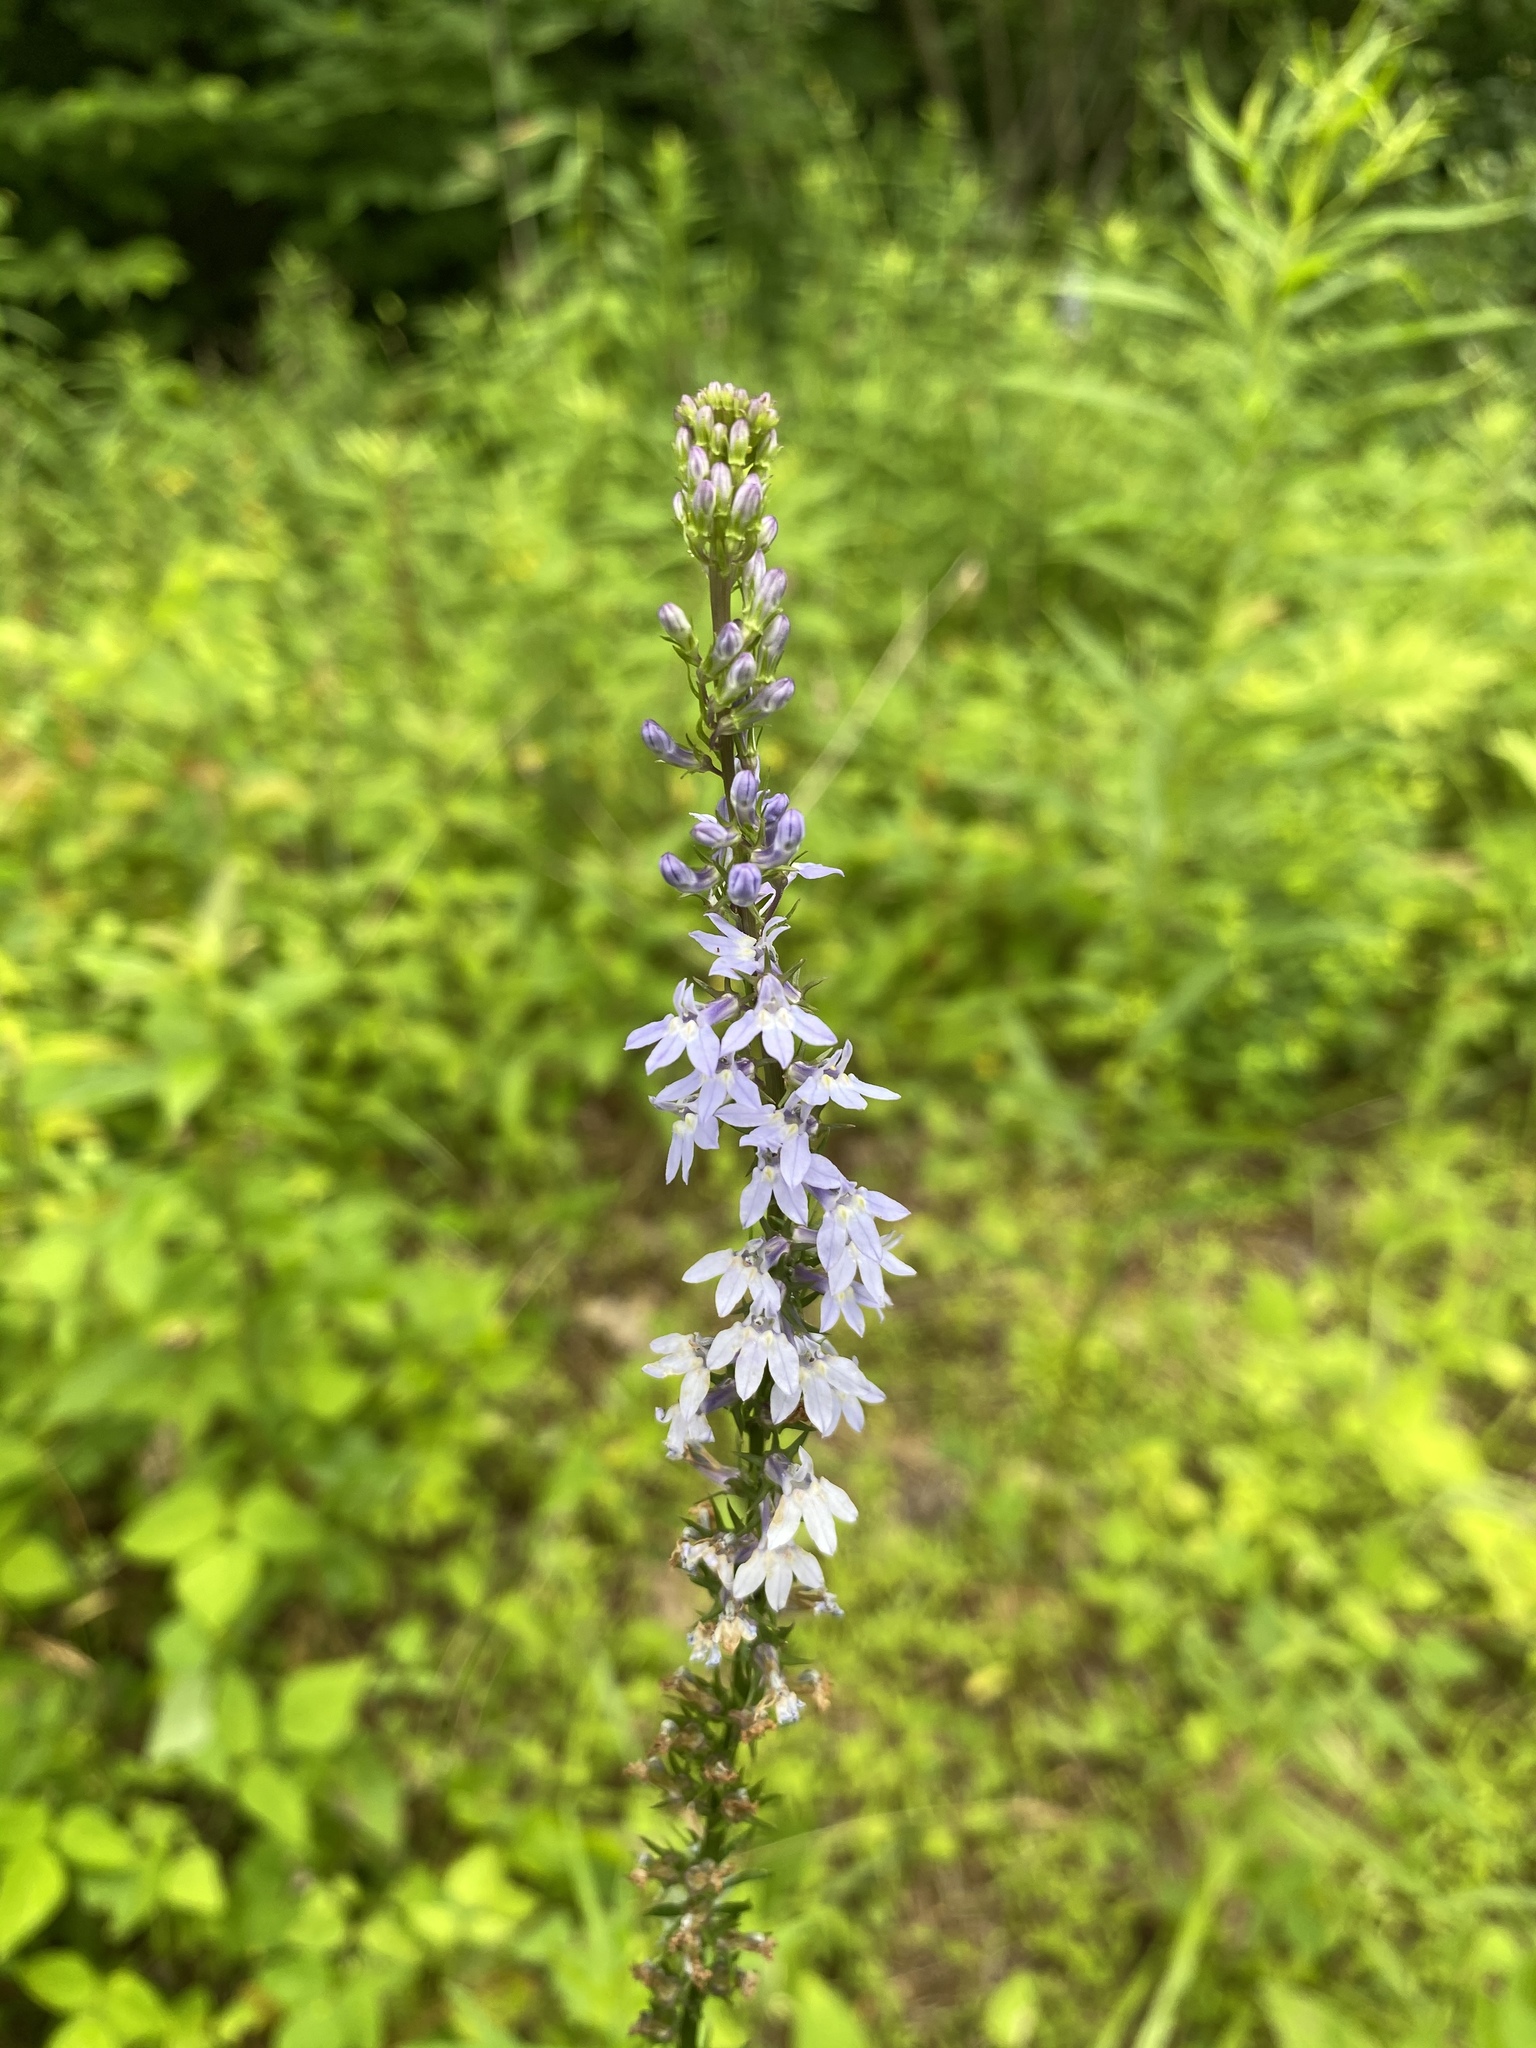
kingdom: Plantae
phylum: Tracheophyta
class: Magnoliopsida
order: Asterales
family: Campanulaceae
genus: Lobelia
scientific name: Lobelia spicata
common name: Pale-spike lobelia
